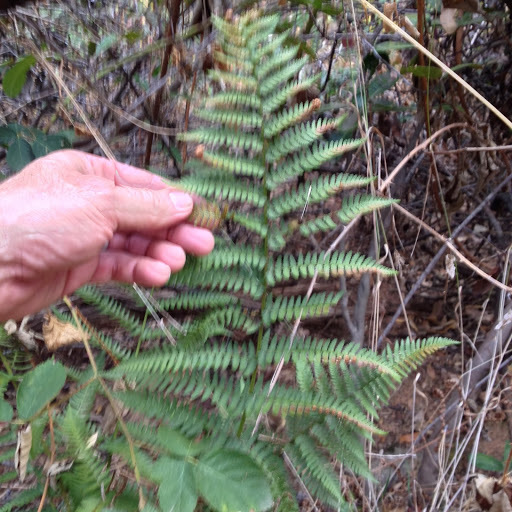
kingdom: Plantae
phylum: Tracheophyta
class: Polypodiopsida
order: Polypodiales
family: Dryopteridaceae
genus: Dryopteris
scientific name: Dryopteris arguta
